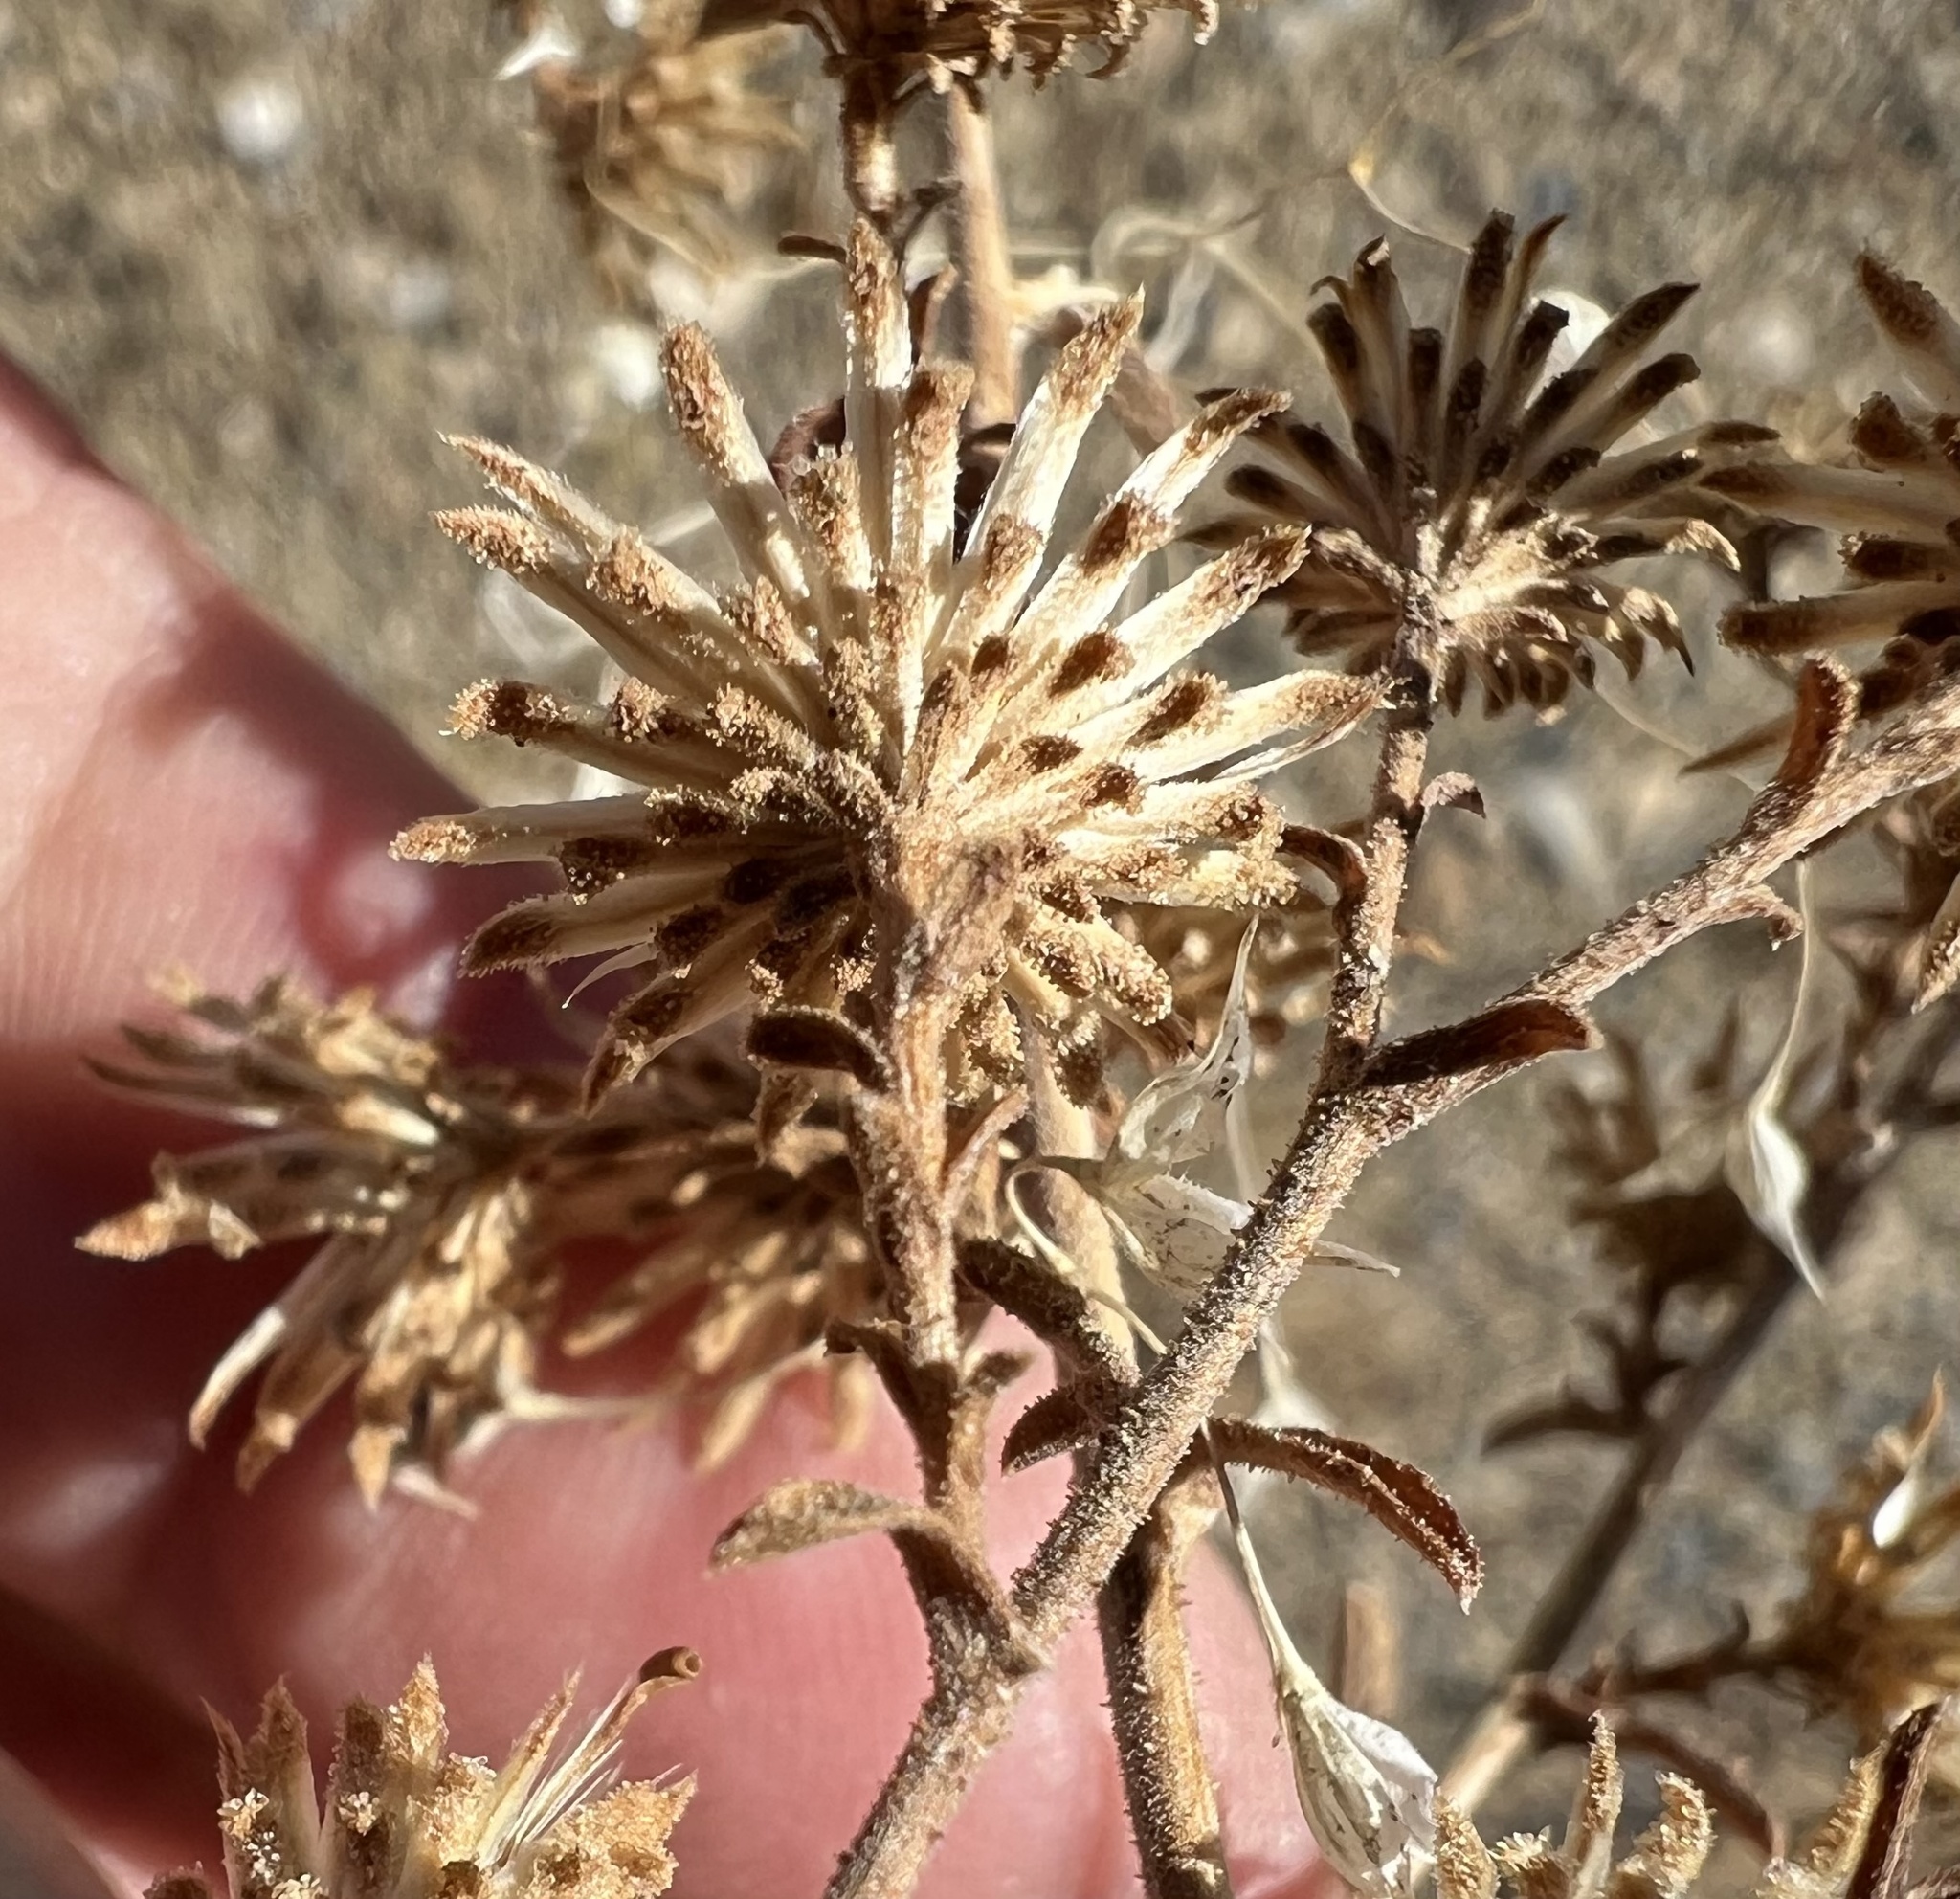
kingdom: Plantae
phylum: Tracheophyta
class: Magnoliopsida
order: Asterales
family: Asteraceae
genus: Dieteria
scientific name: Dieteria canescens
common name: Hoary-aster
